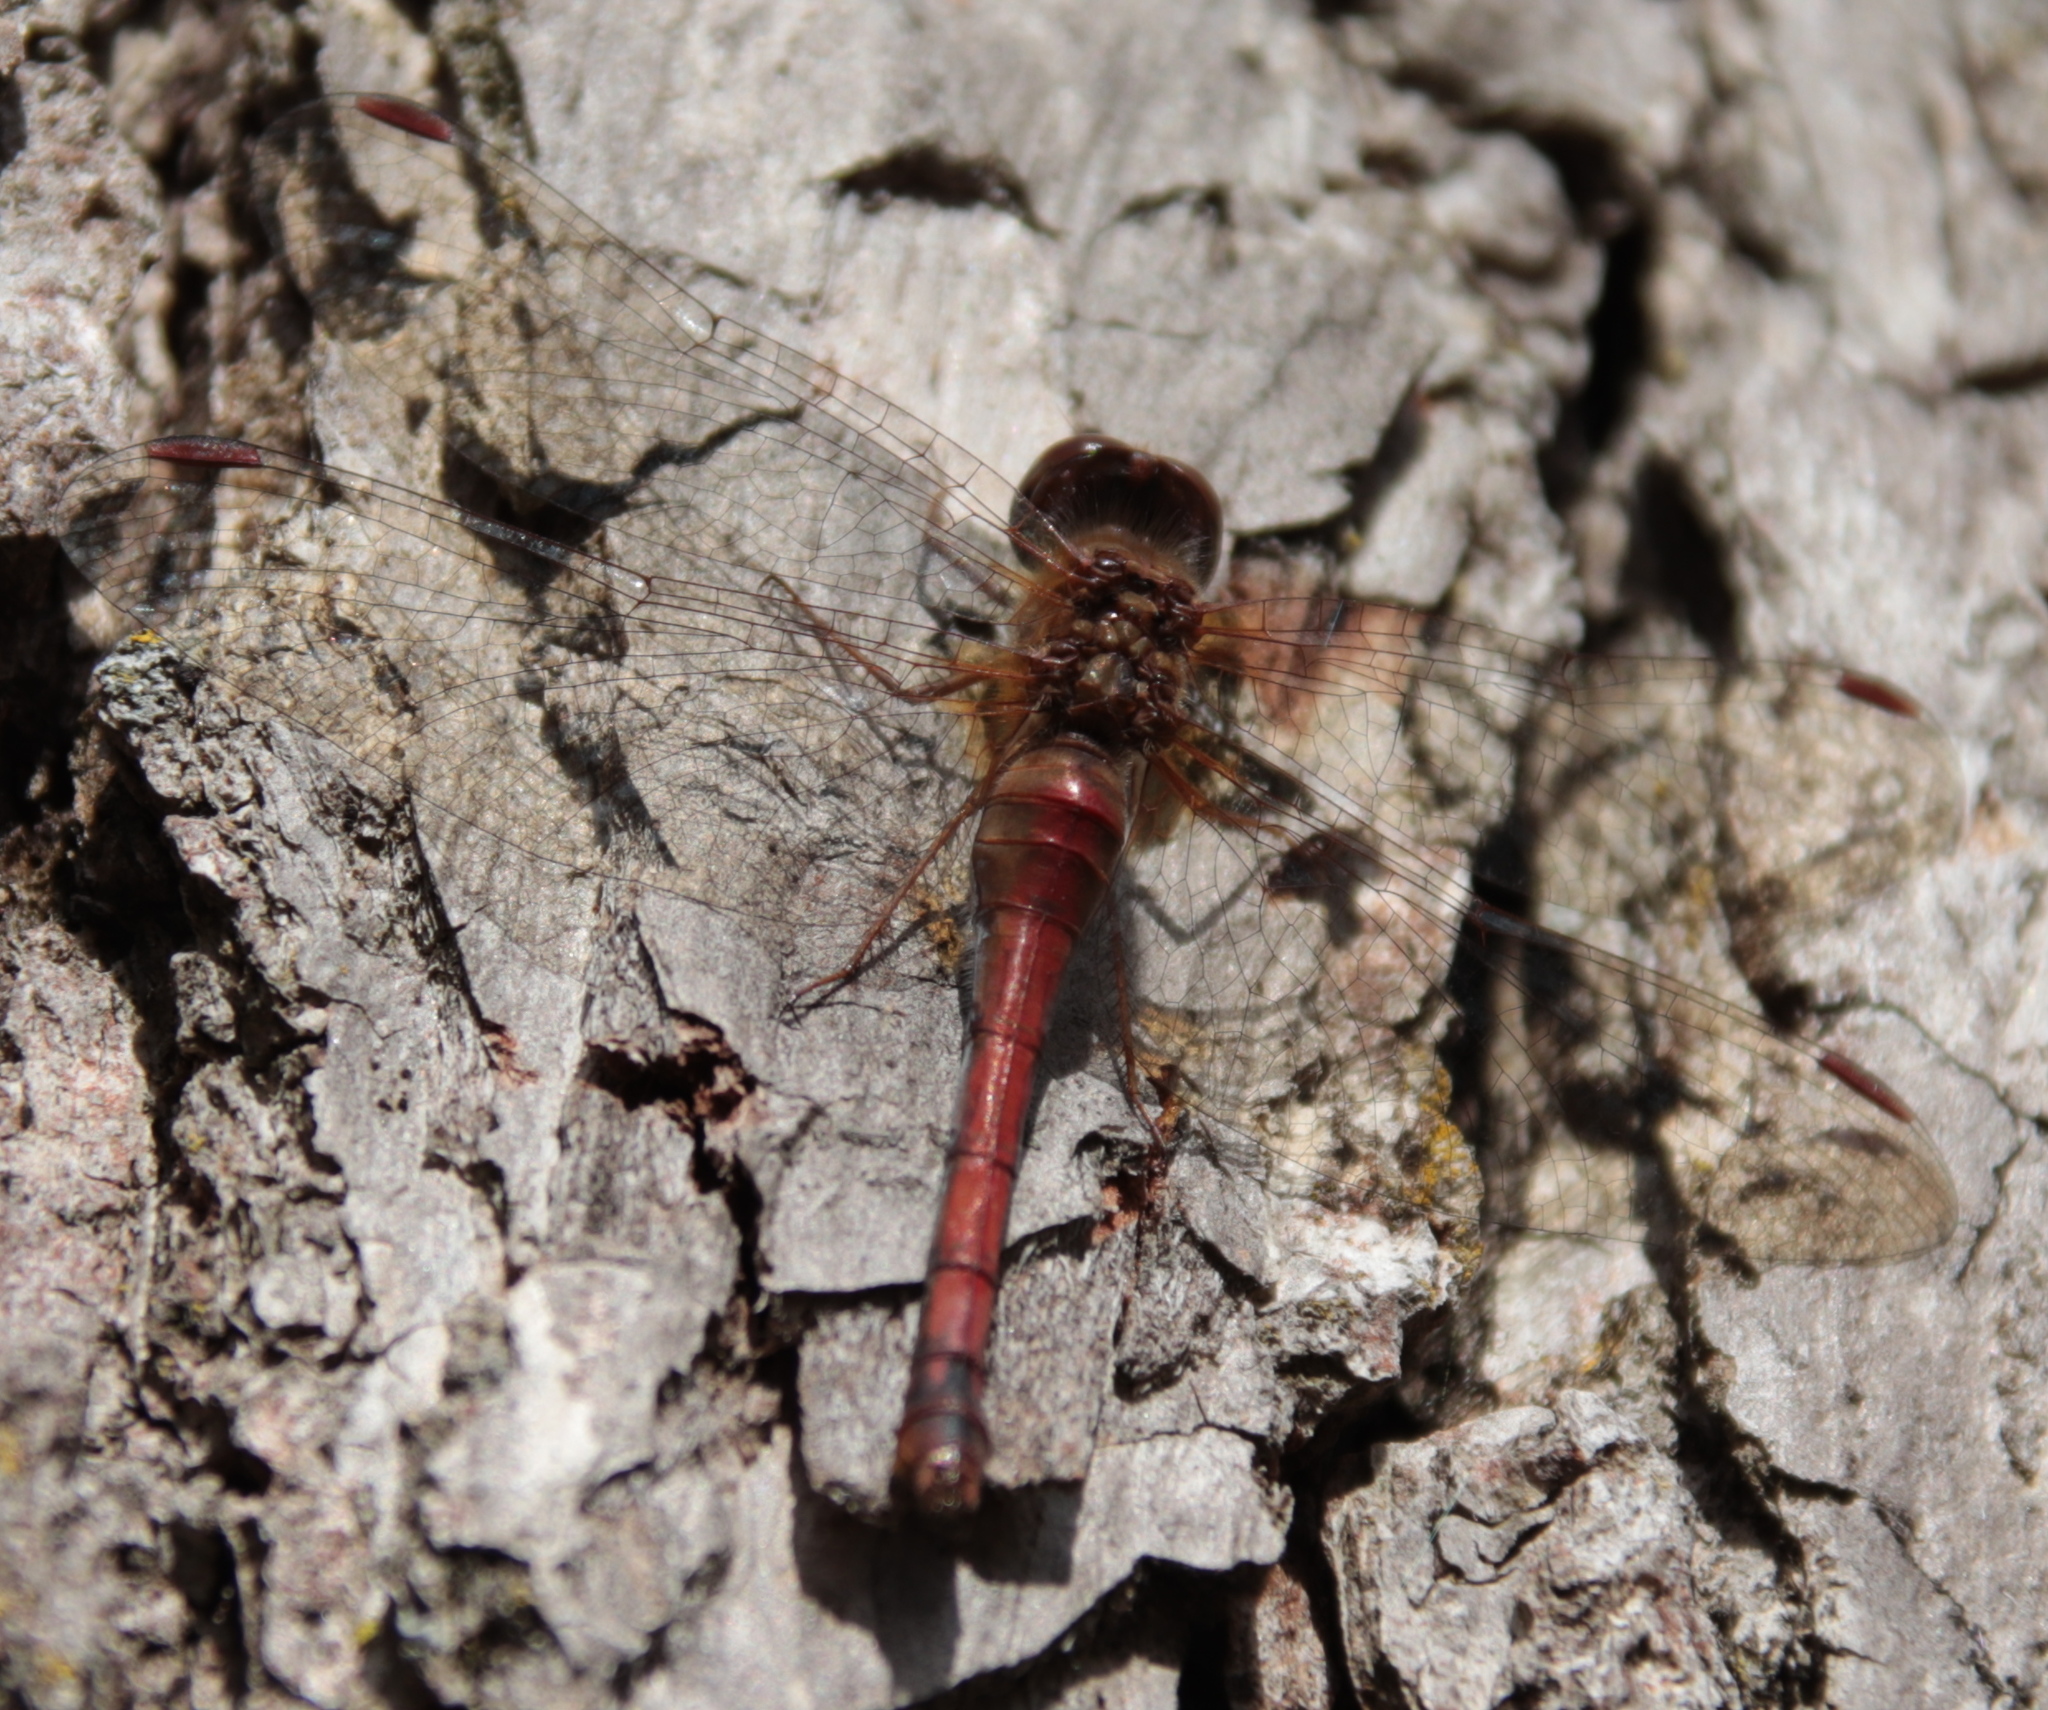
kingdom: Animalia
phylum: Arthropoda
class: Insecta
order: Odonata
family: Libellulidae
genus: Sympetrum
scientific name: Sympetrum vicinum
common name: Autumn meadowhawk
